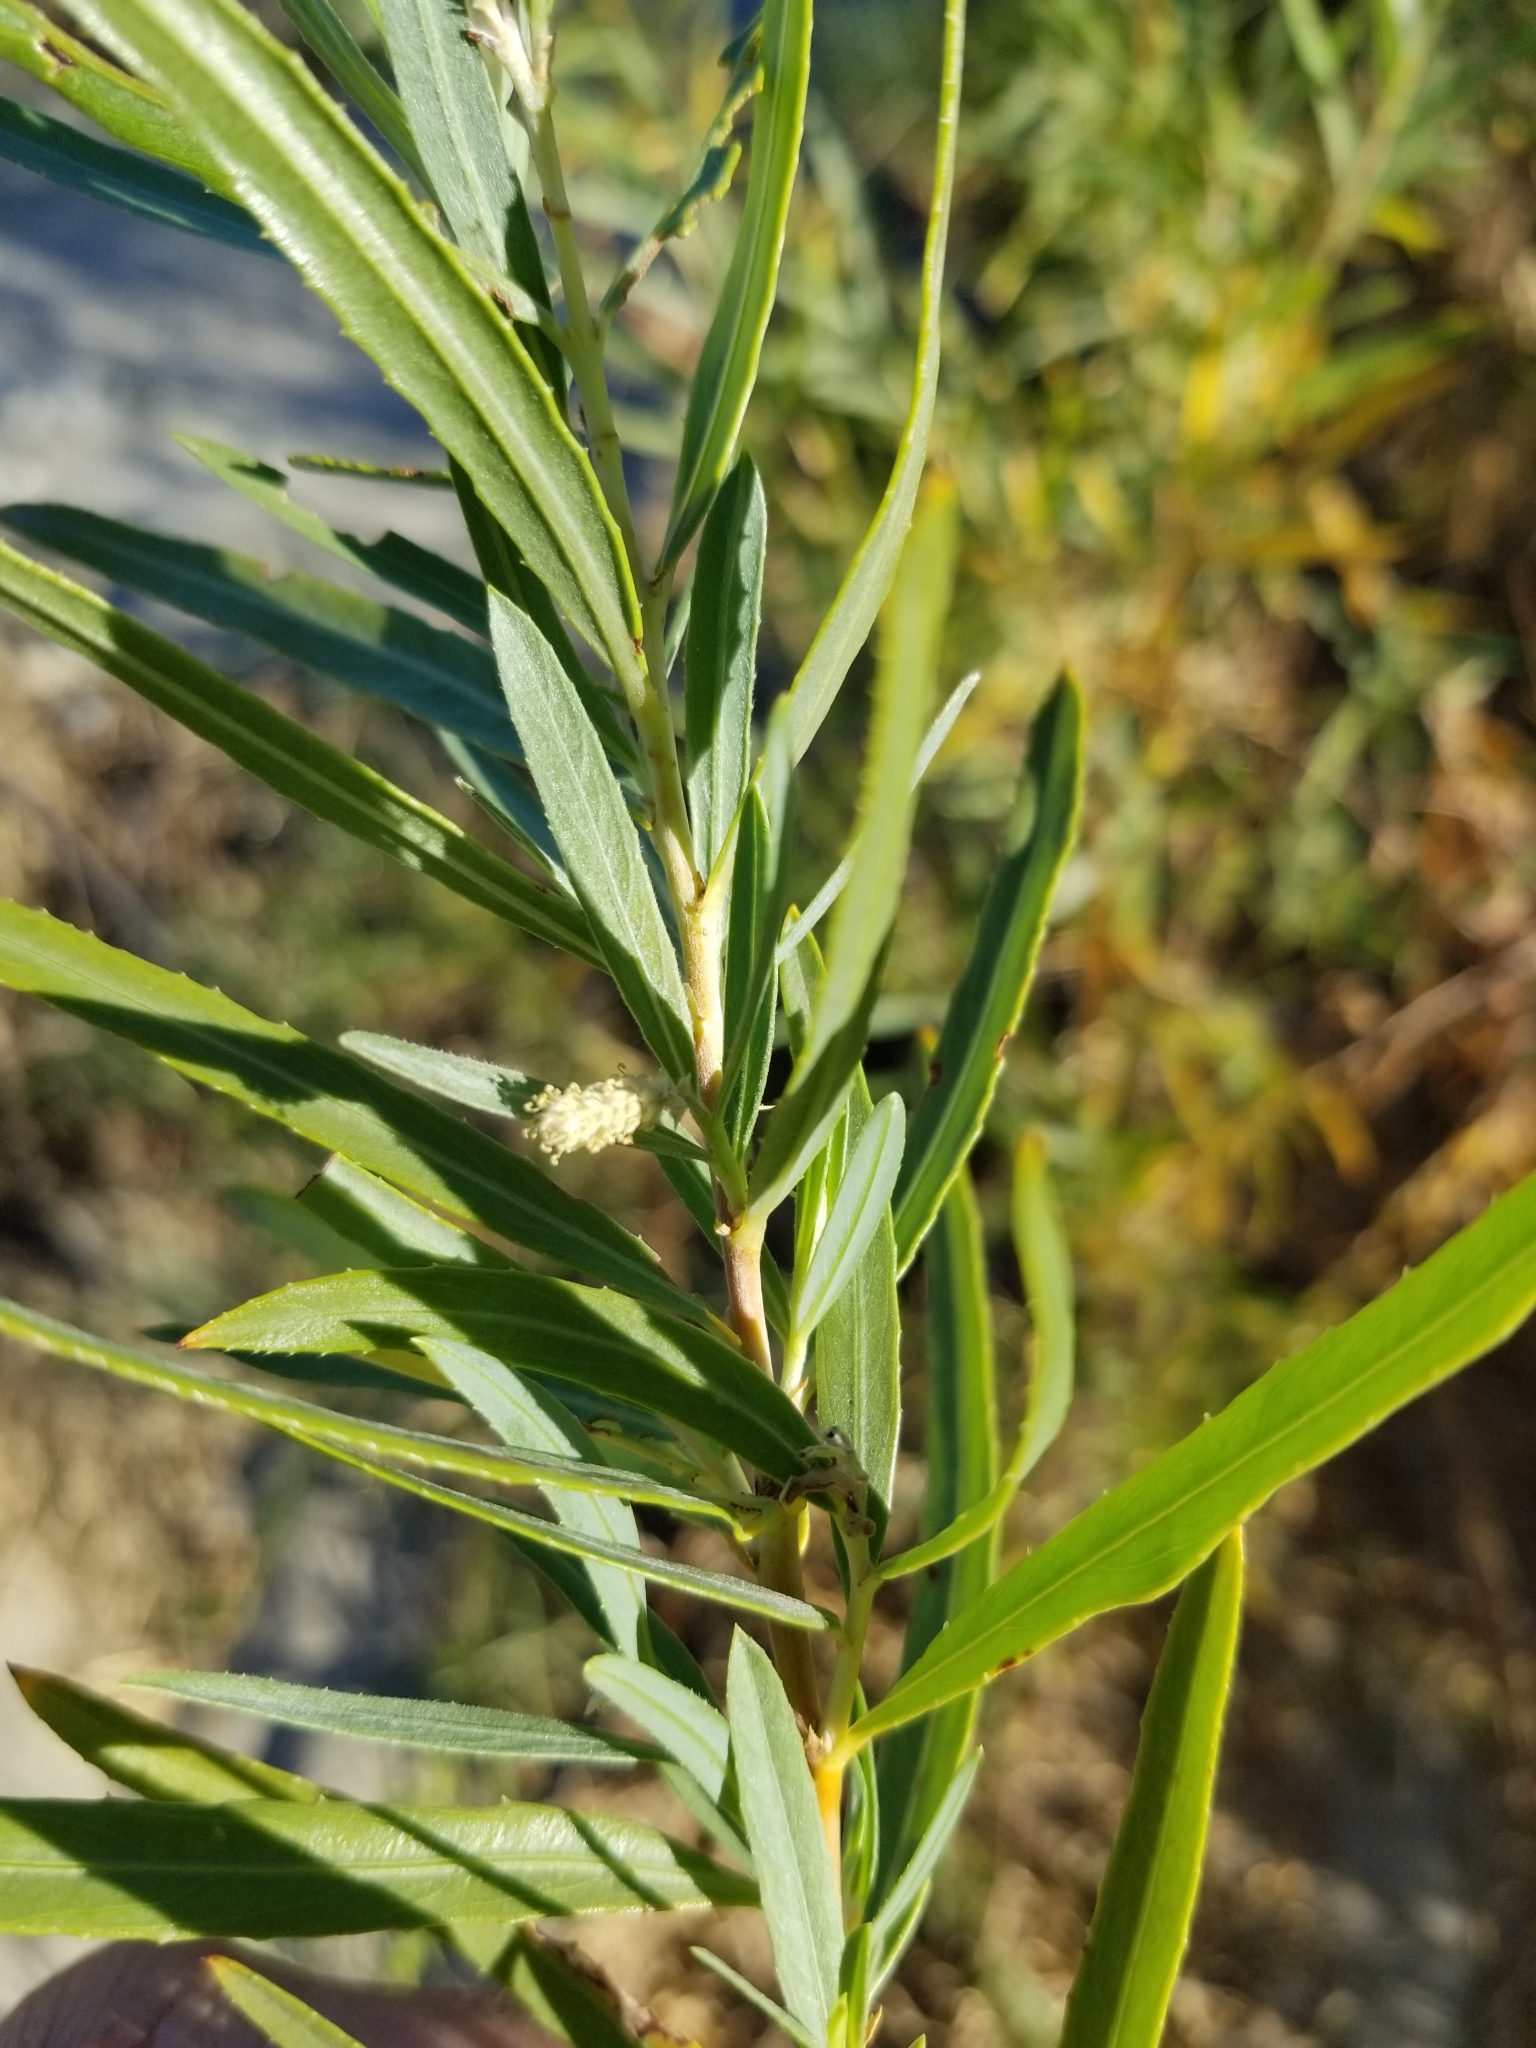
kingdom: Plantae
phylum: Tracheophyta
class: Magnoliopsida
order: Malpighiales
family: Salicaceae
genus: Salix
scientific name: Salix exigua
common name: Coyote willow
